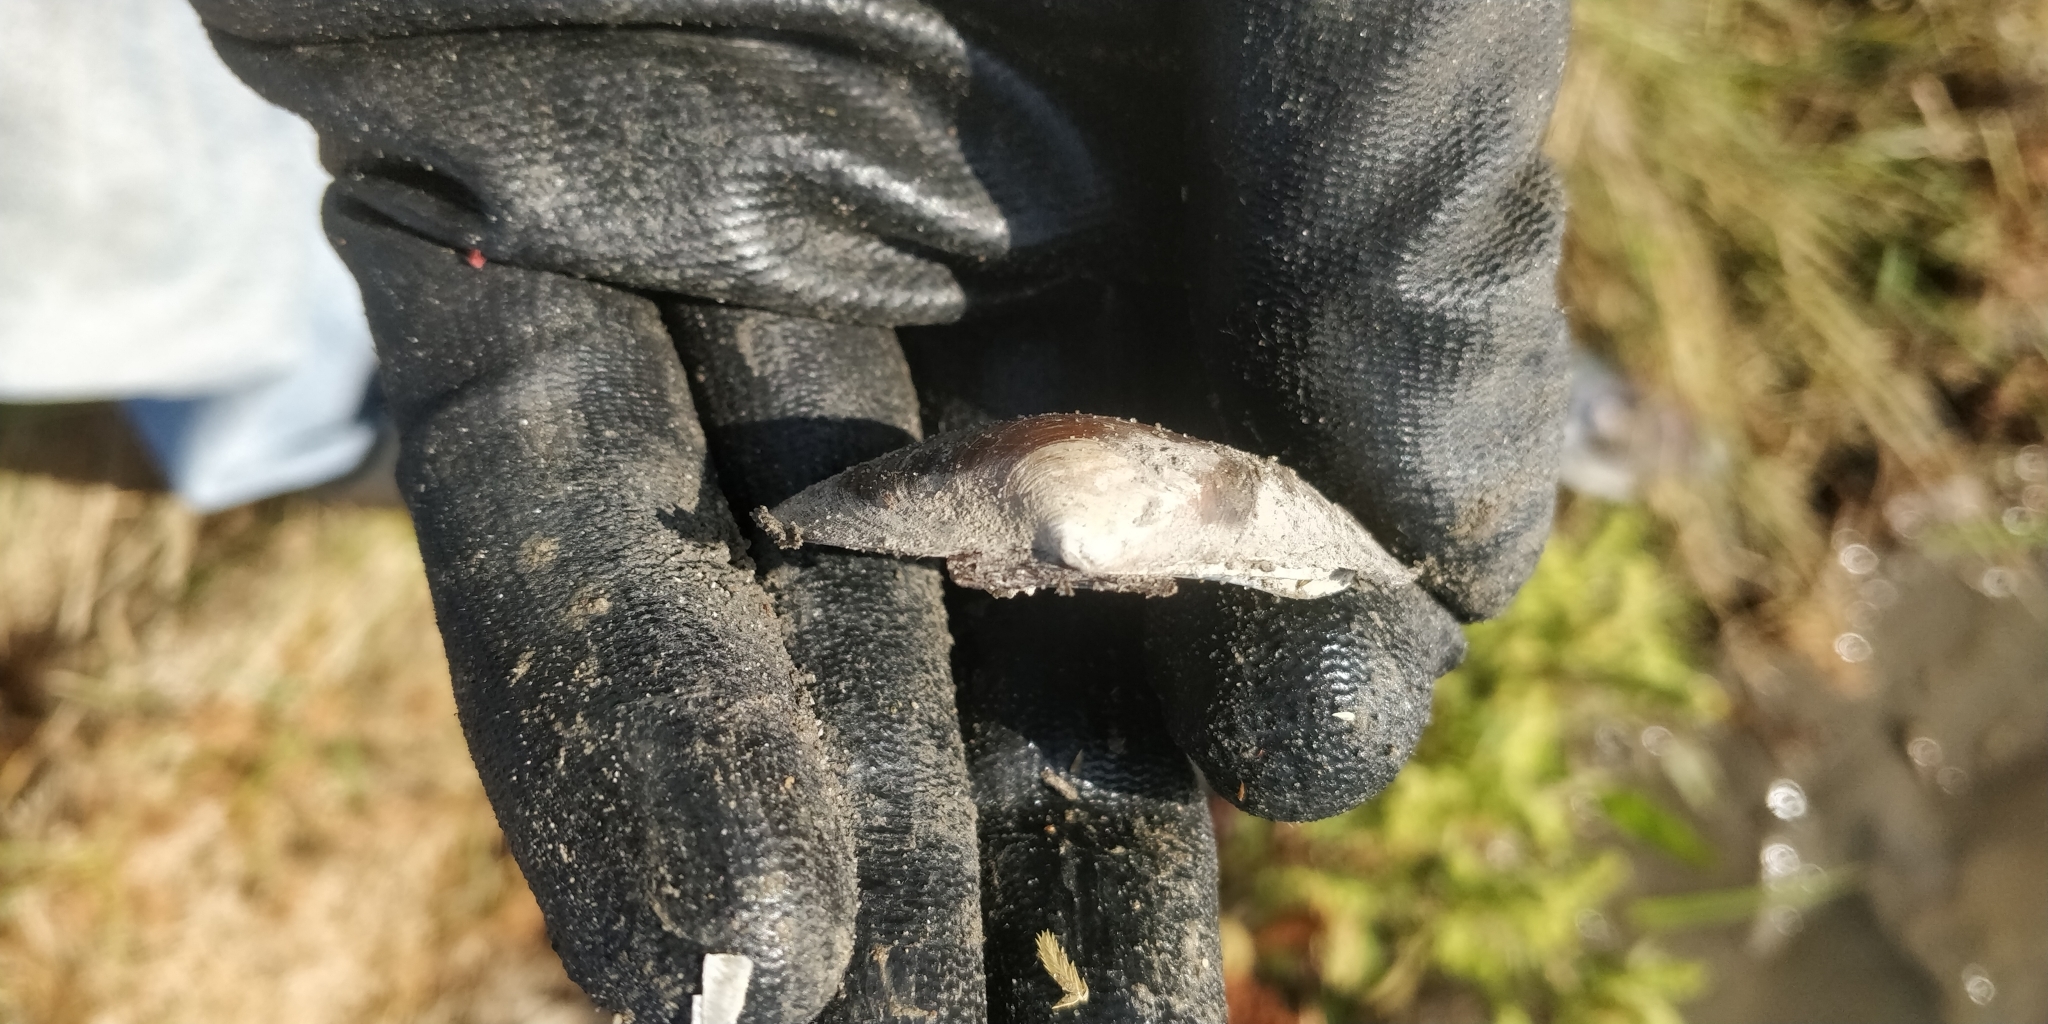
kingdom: Animalia
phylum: Mollusca
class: Bivalvia
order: Unionida
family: Unionidae
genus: Fusconaia
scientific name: Fusconaia flava
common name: Wabash pigtoe
